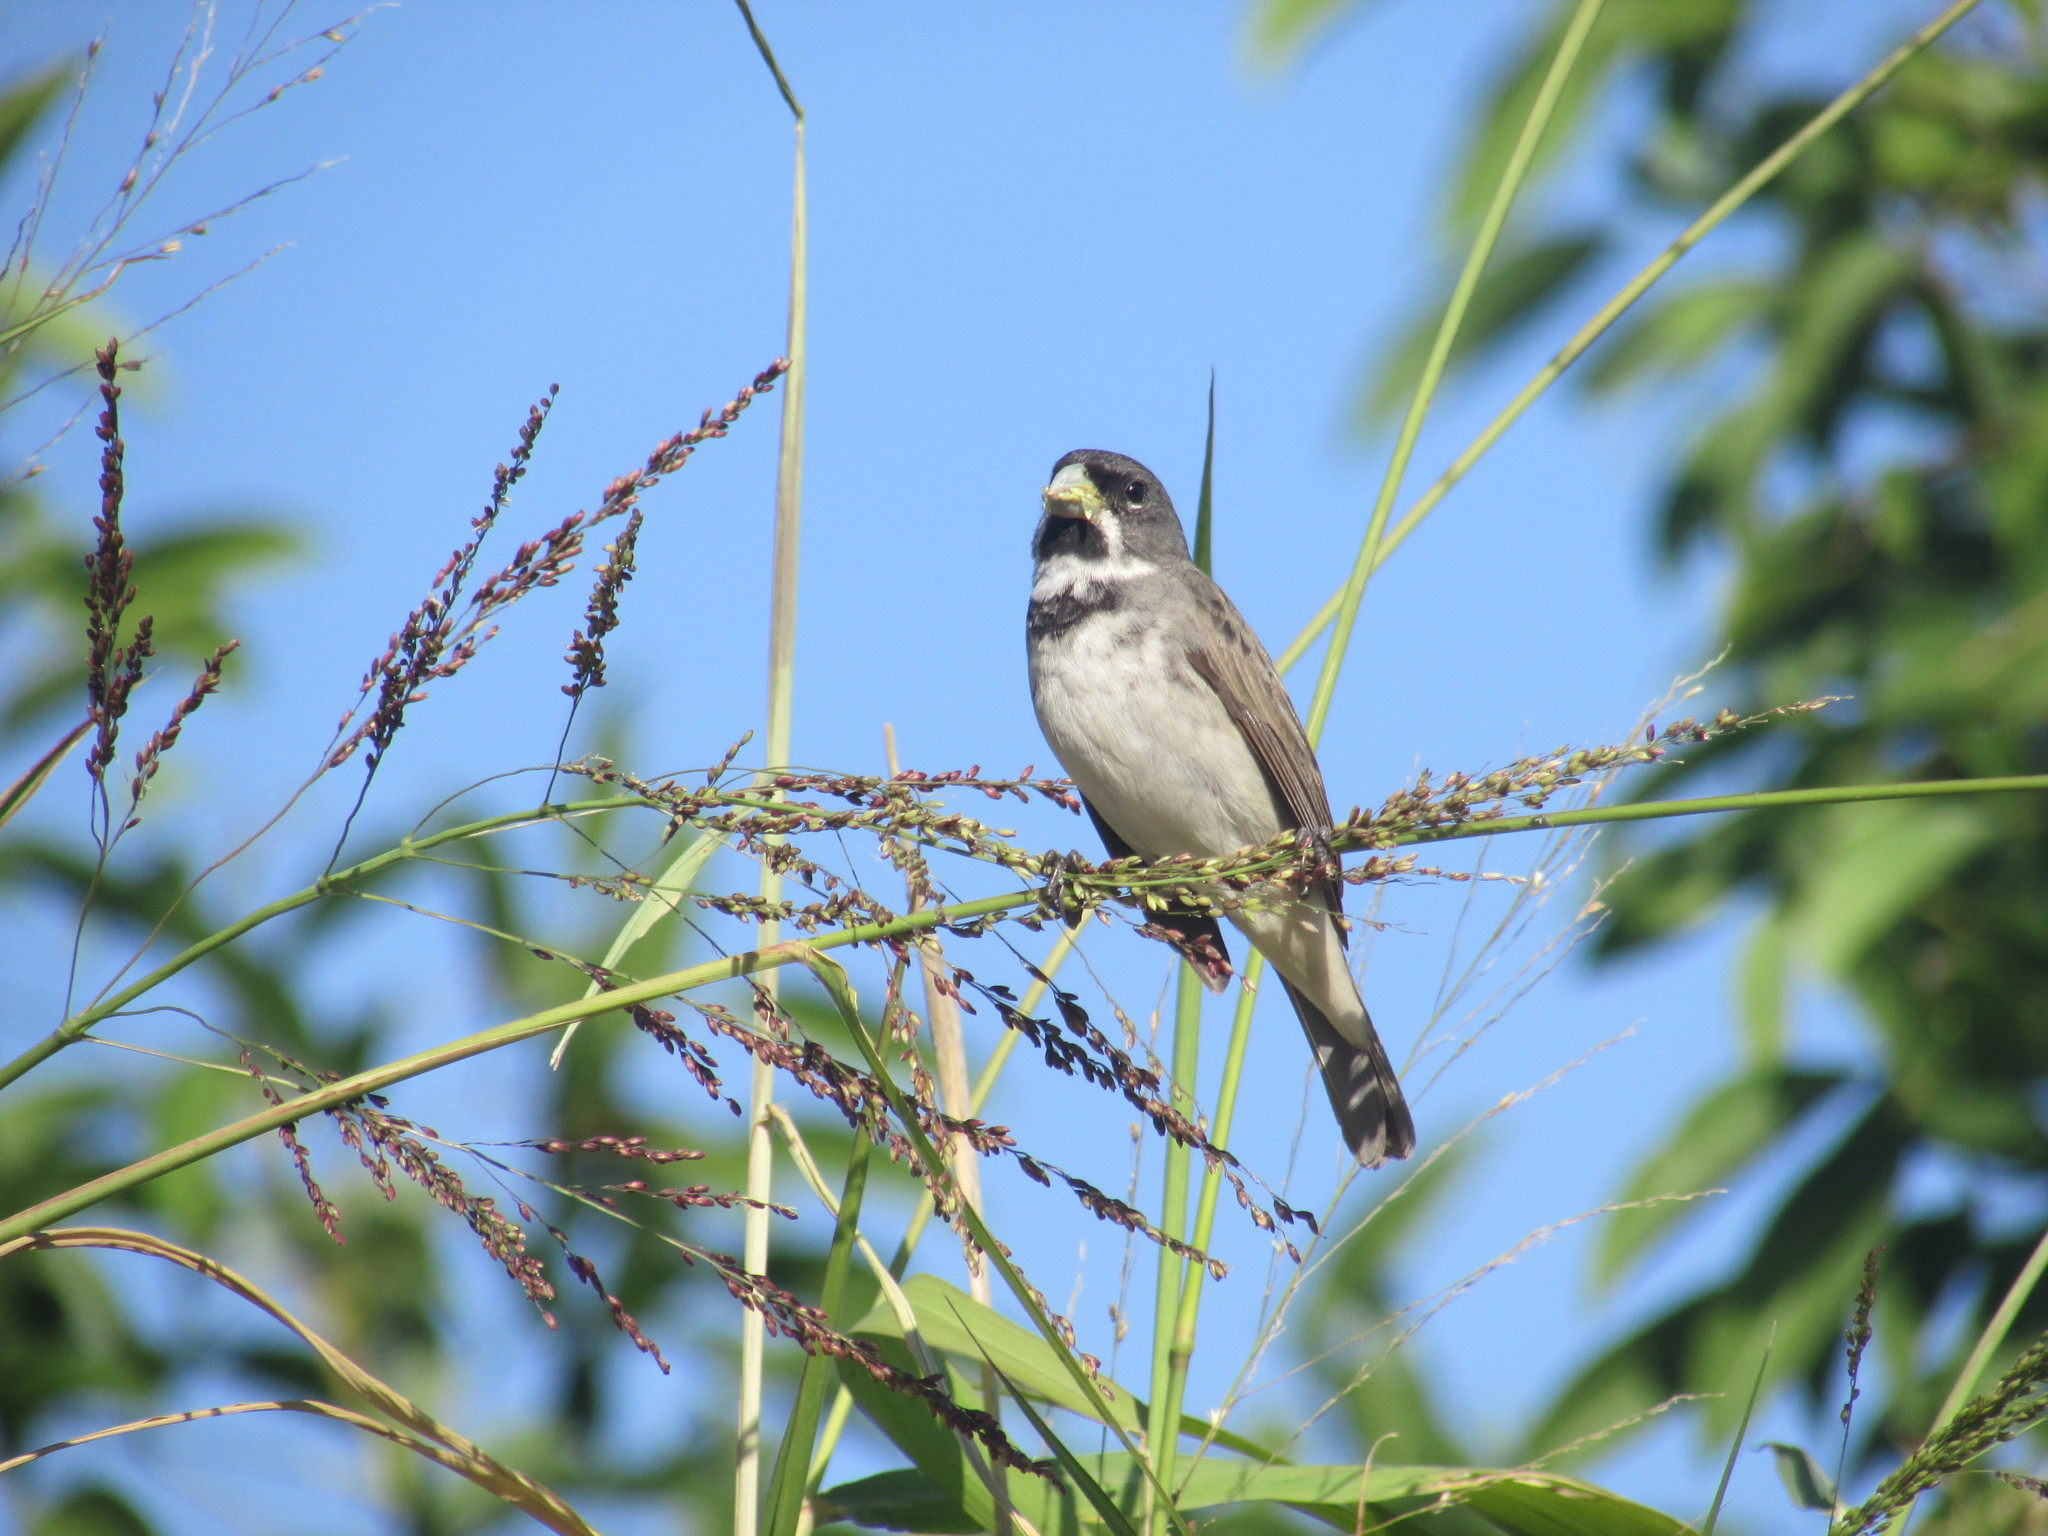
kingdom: Animalia
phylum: Chordata
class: Aves
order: Passeriformes
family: Thraupidae
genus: Sporophila
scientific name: Sporophila caerulescens
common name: Double-collared seedeater
